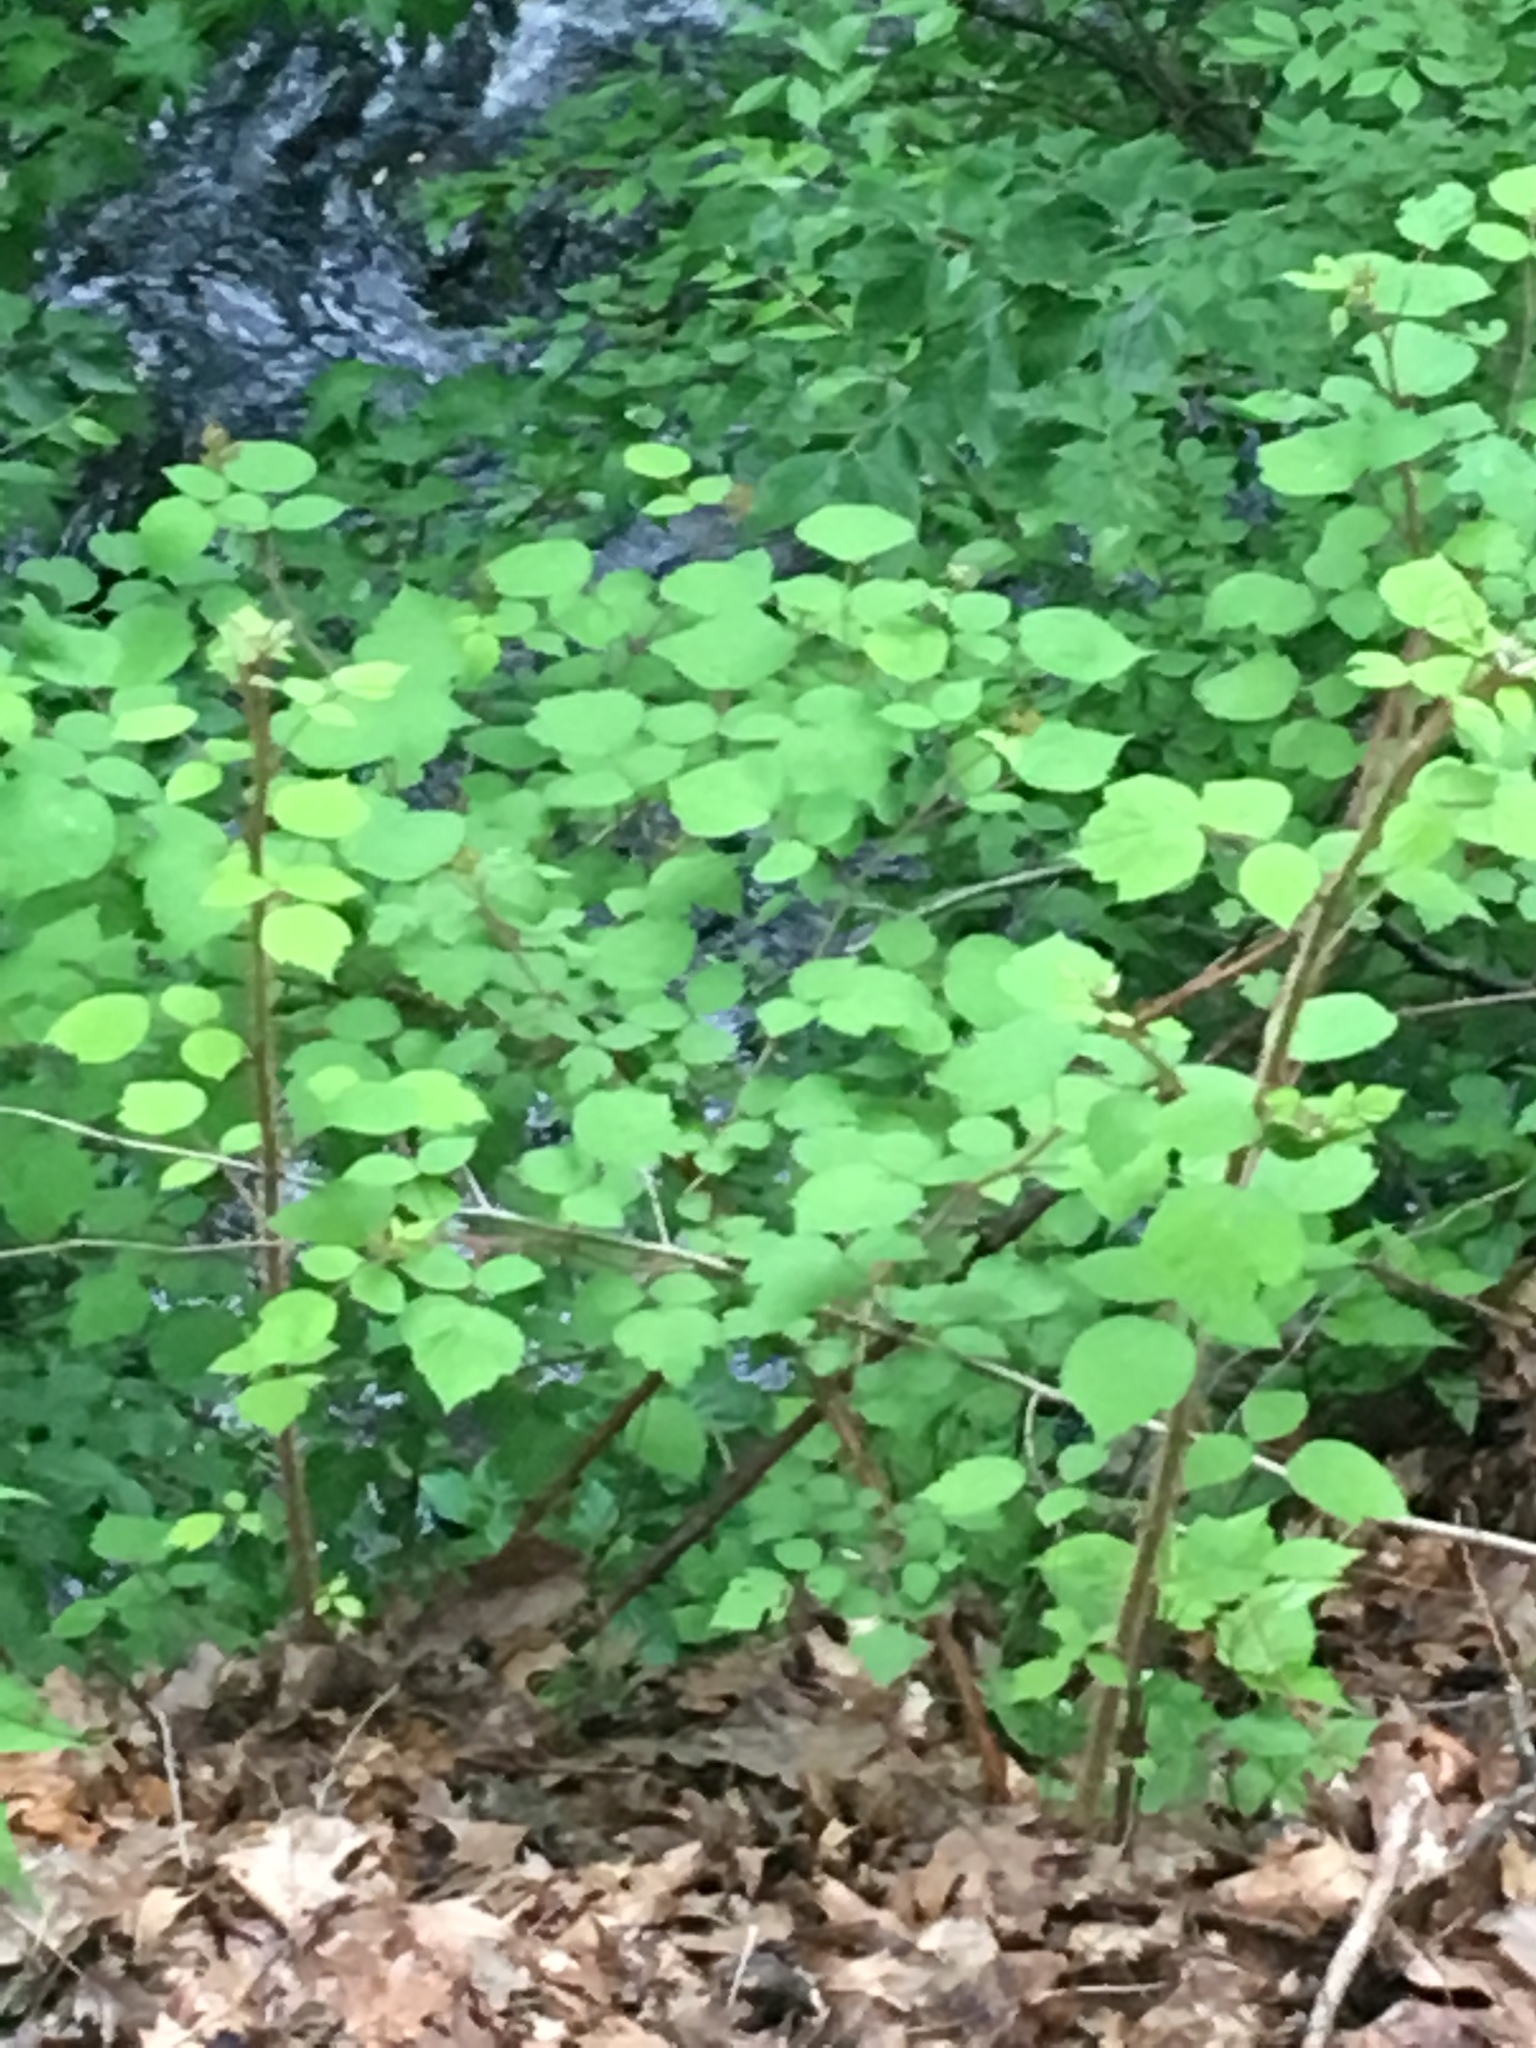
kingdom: Plantae
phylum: Tracheophyta
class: Magnoliopsida
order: Rosales
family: Rosaceae
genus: Rubus
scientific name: Rubus phoenicolasius
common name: Japanese wineberry
